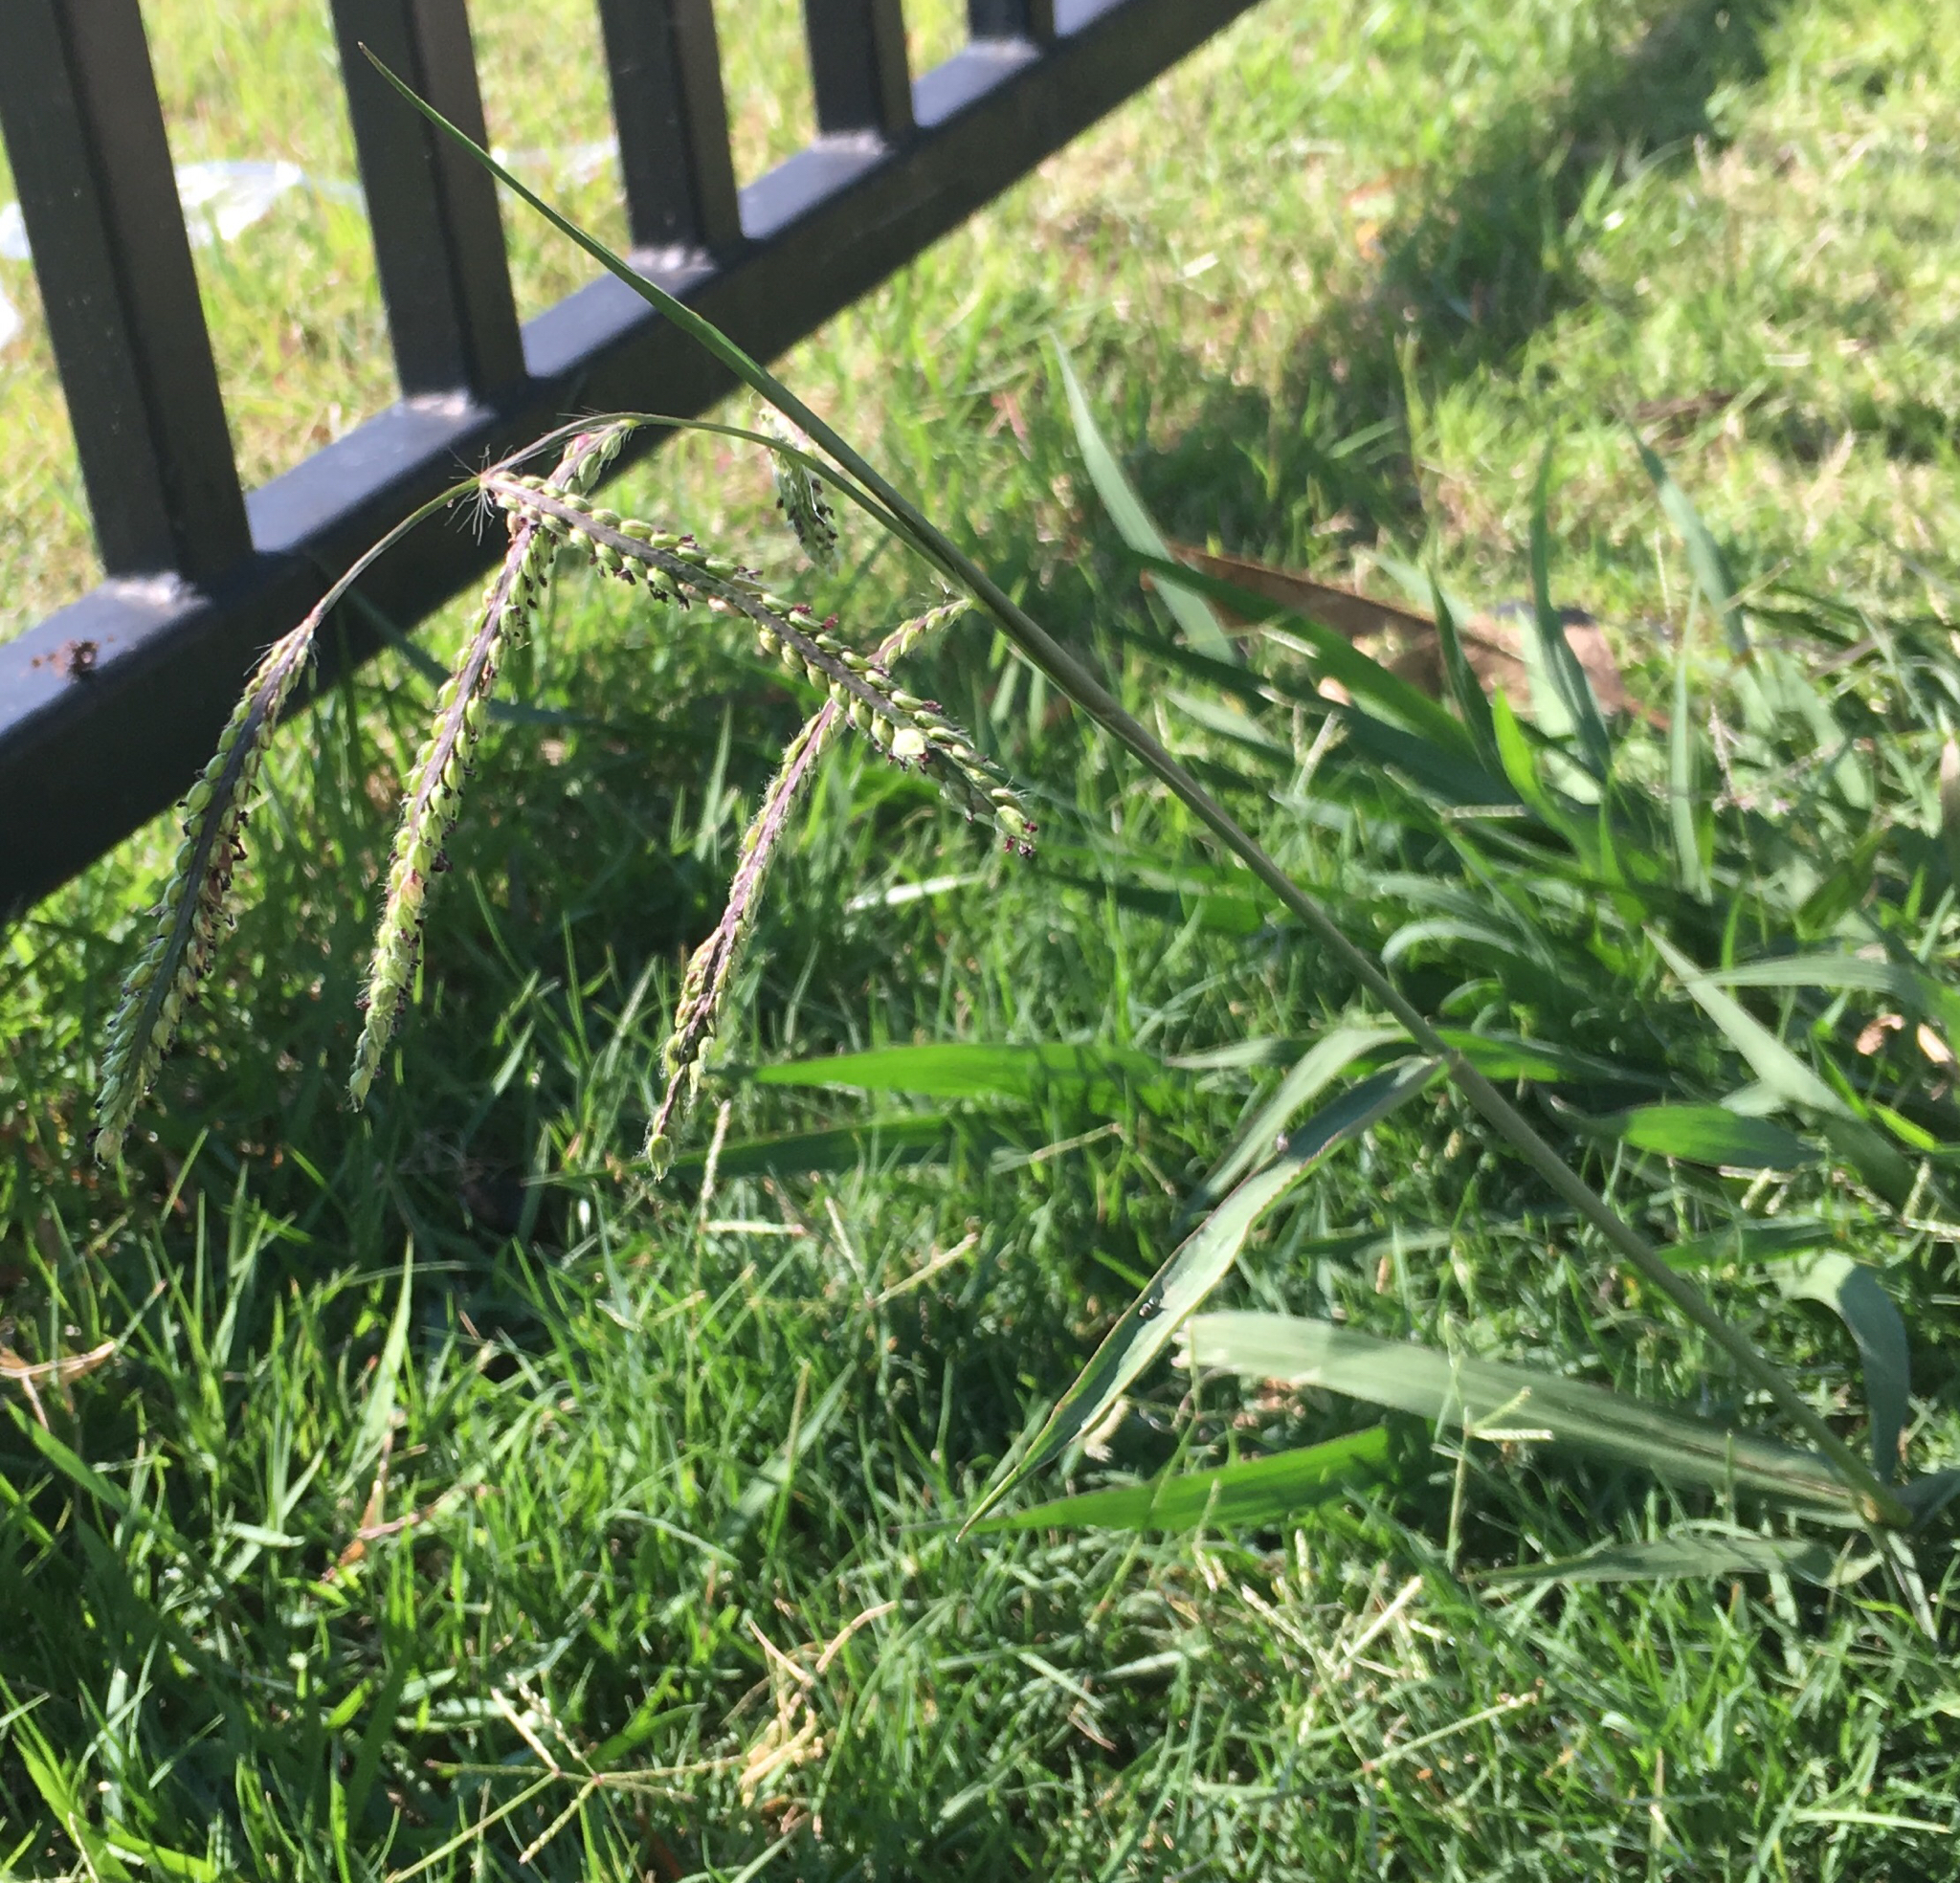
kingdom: Plantae
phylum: Tracheophyta
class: Liliopsida
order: Poales
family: Poaceae
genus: Paspalum
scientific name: Paspalum dilatatum
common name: Dallisgrass
